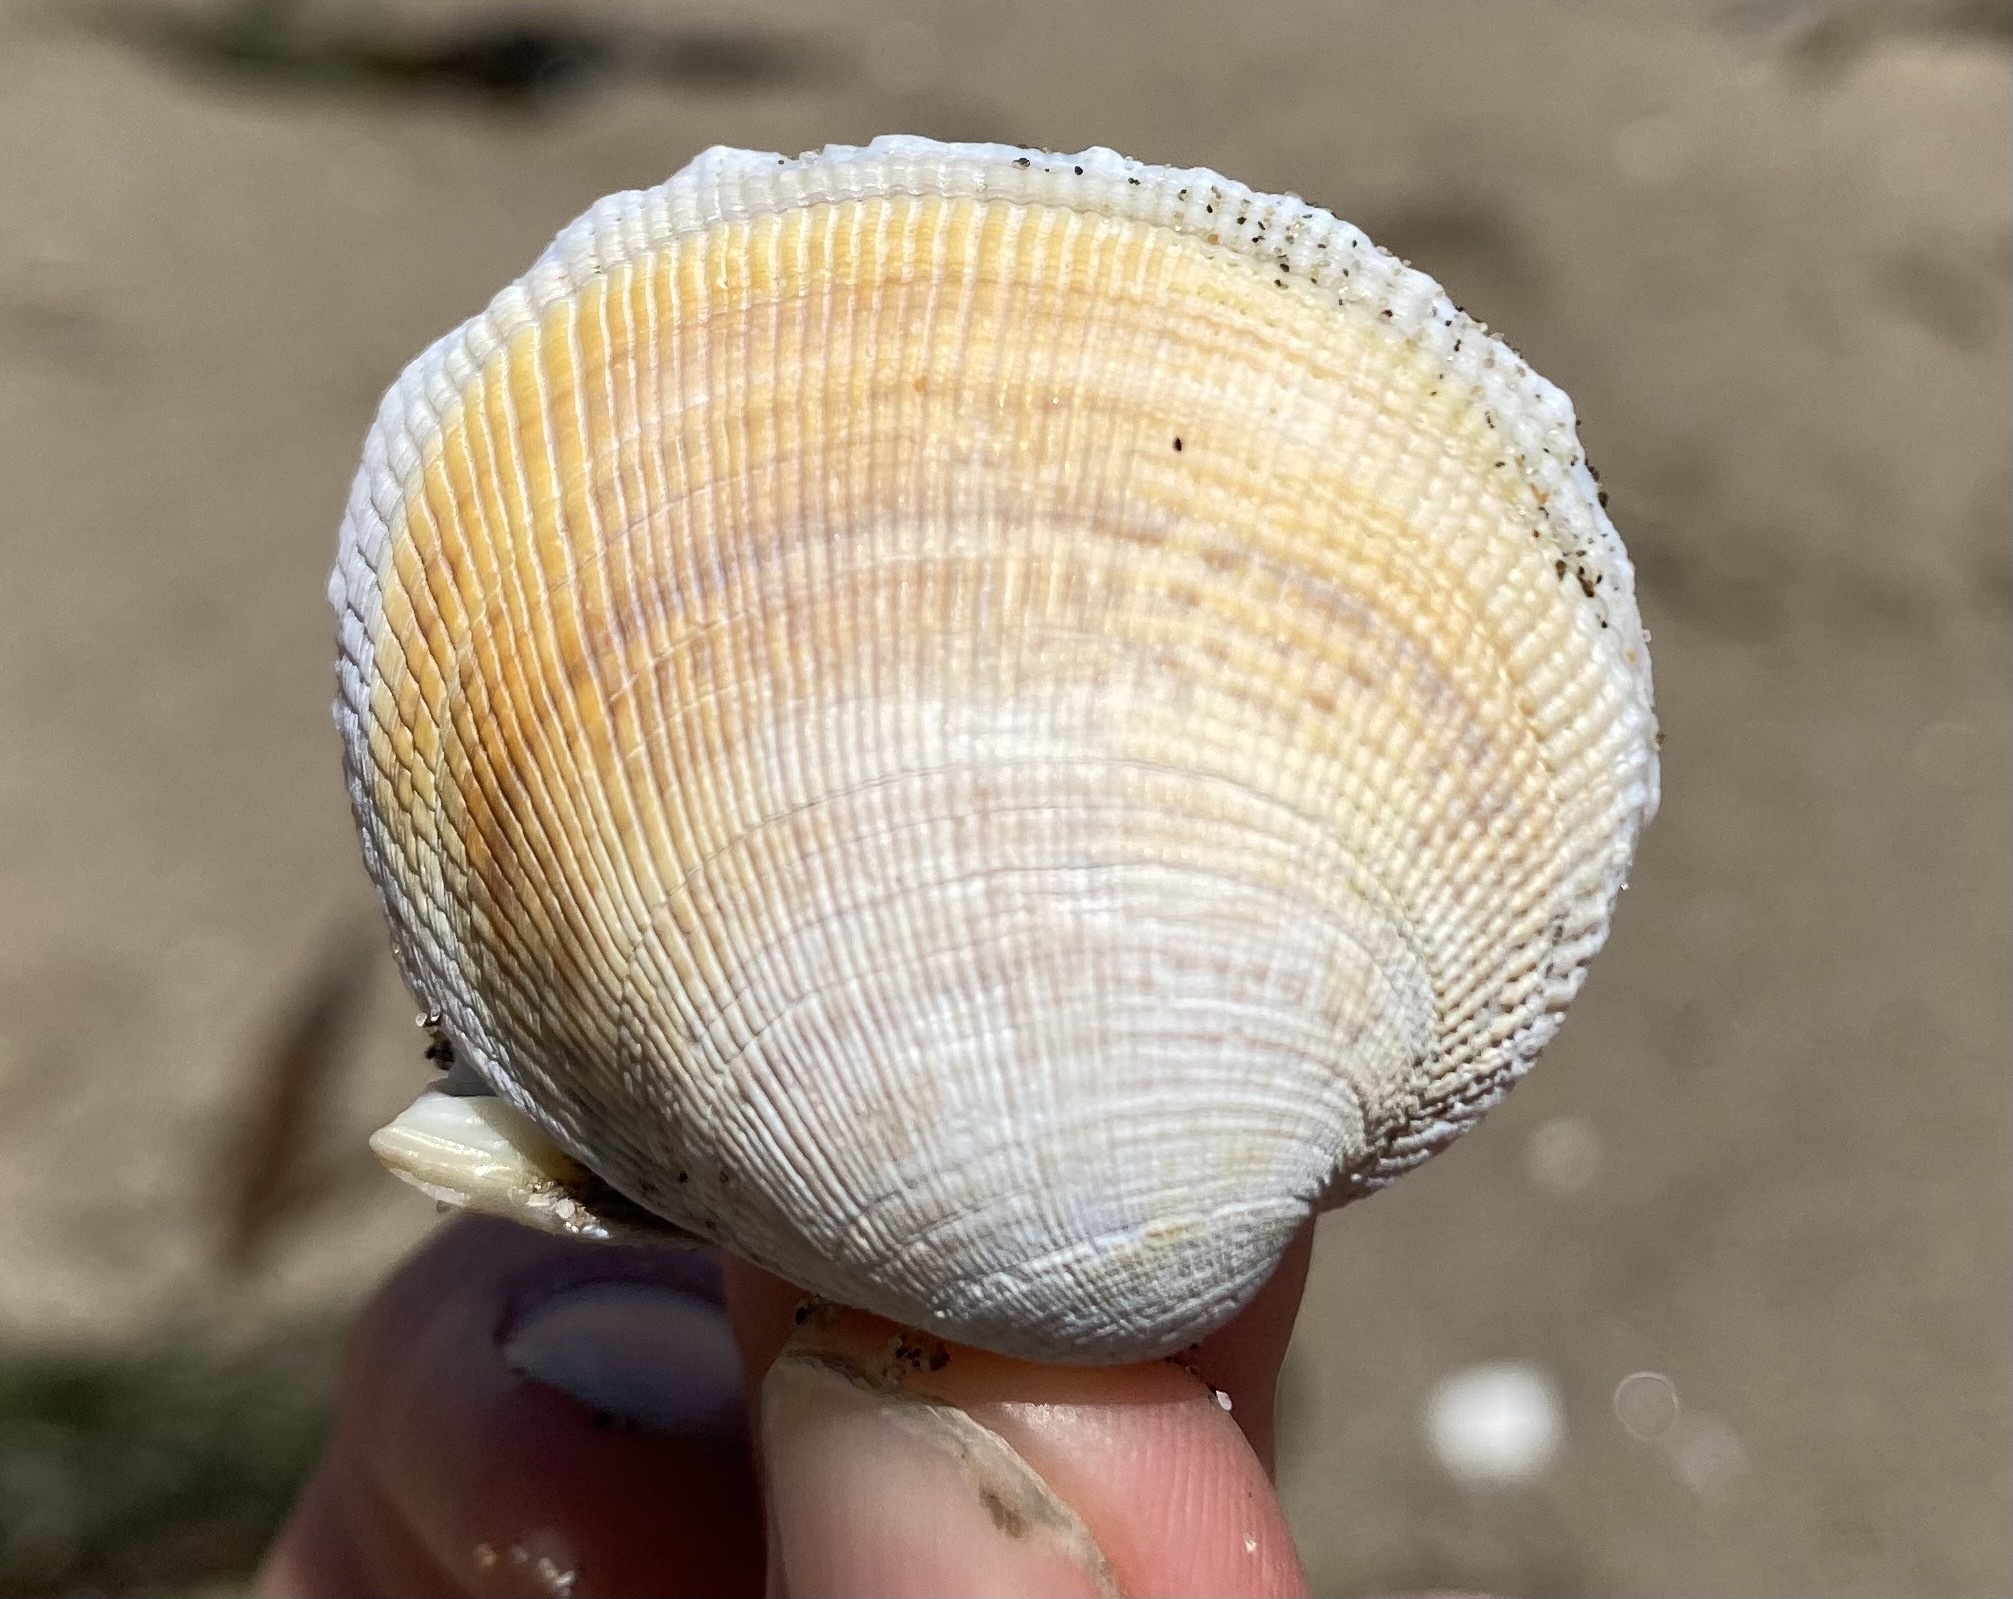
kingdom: Animalia
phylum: Mollusca
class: Bivalvia
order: Venerida
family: Veneridae
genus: Leukoma
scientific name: Leukoma staminea
